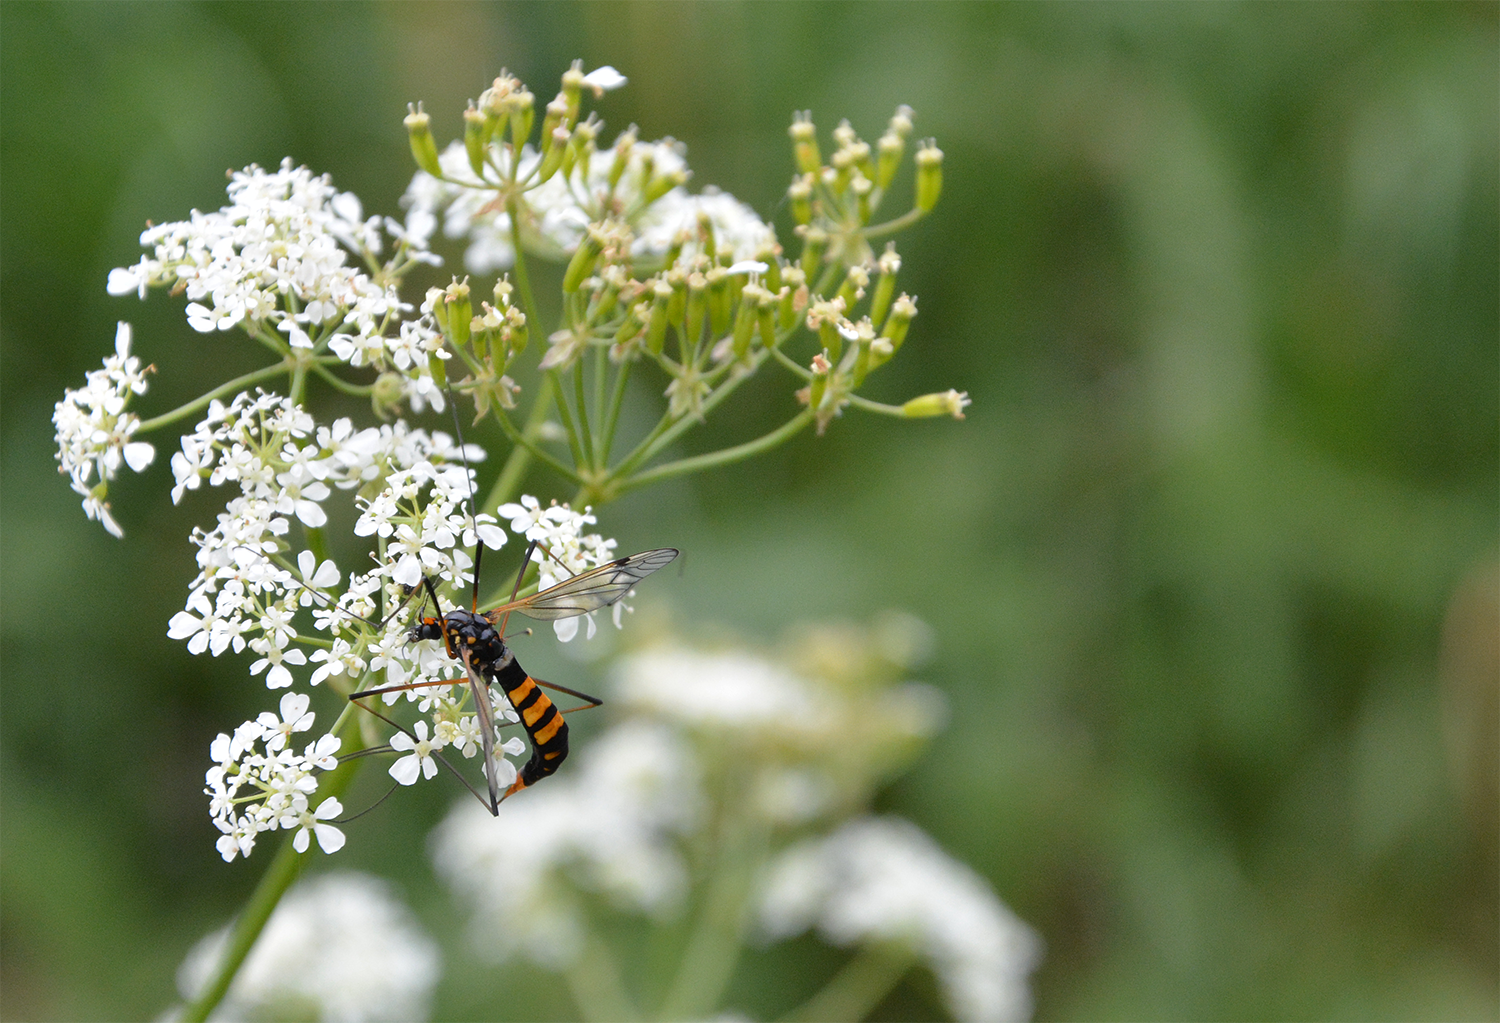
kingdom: Animalia
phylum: Arthropoda
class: Insecta
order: Diptera
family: Tipulidae
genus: Nephrotoma
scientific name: Nephrotoma crocata
